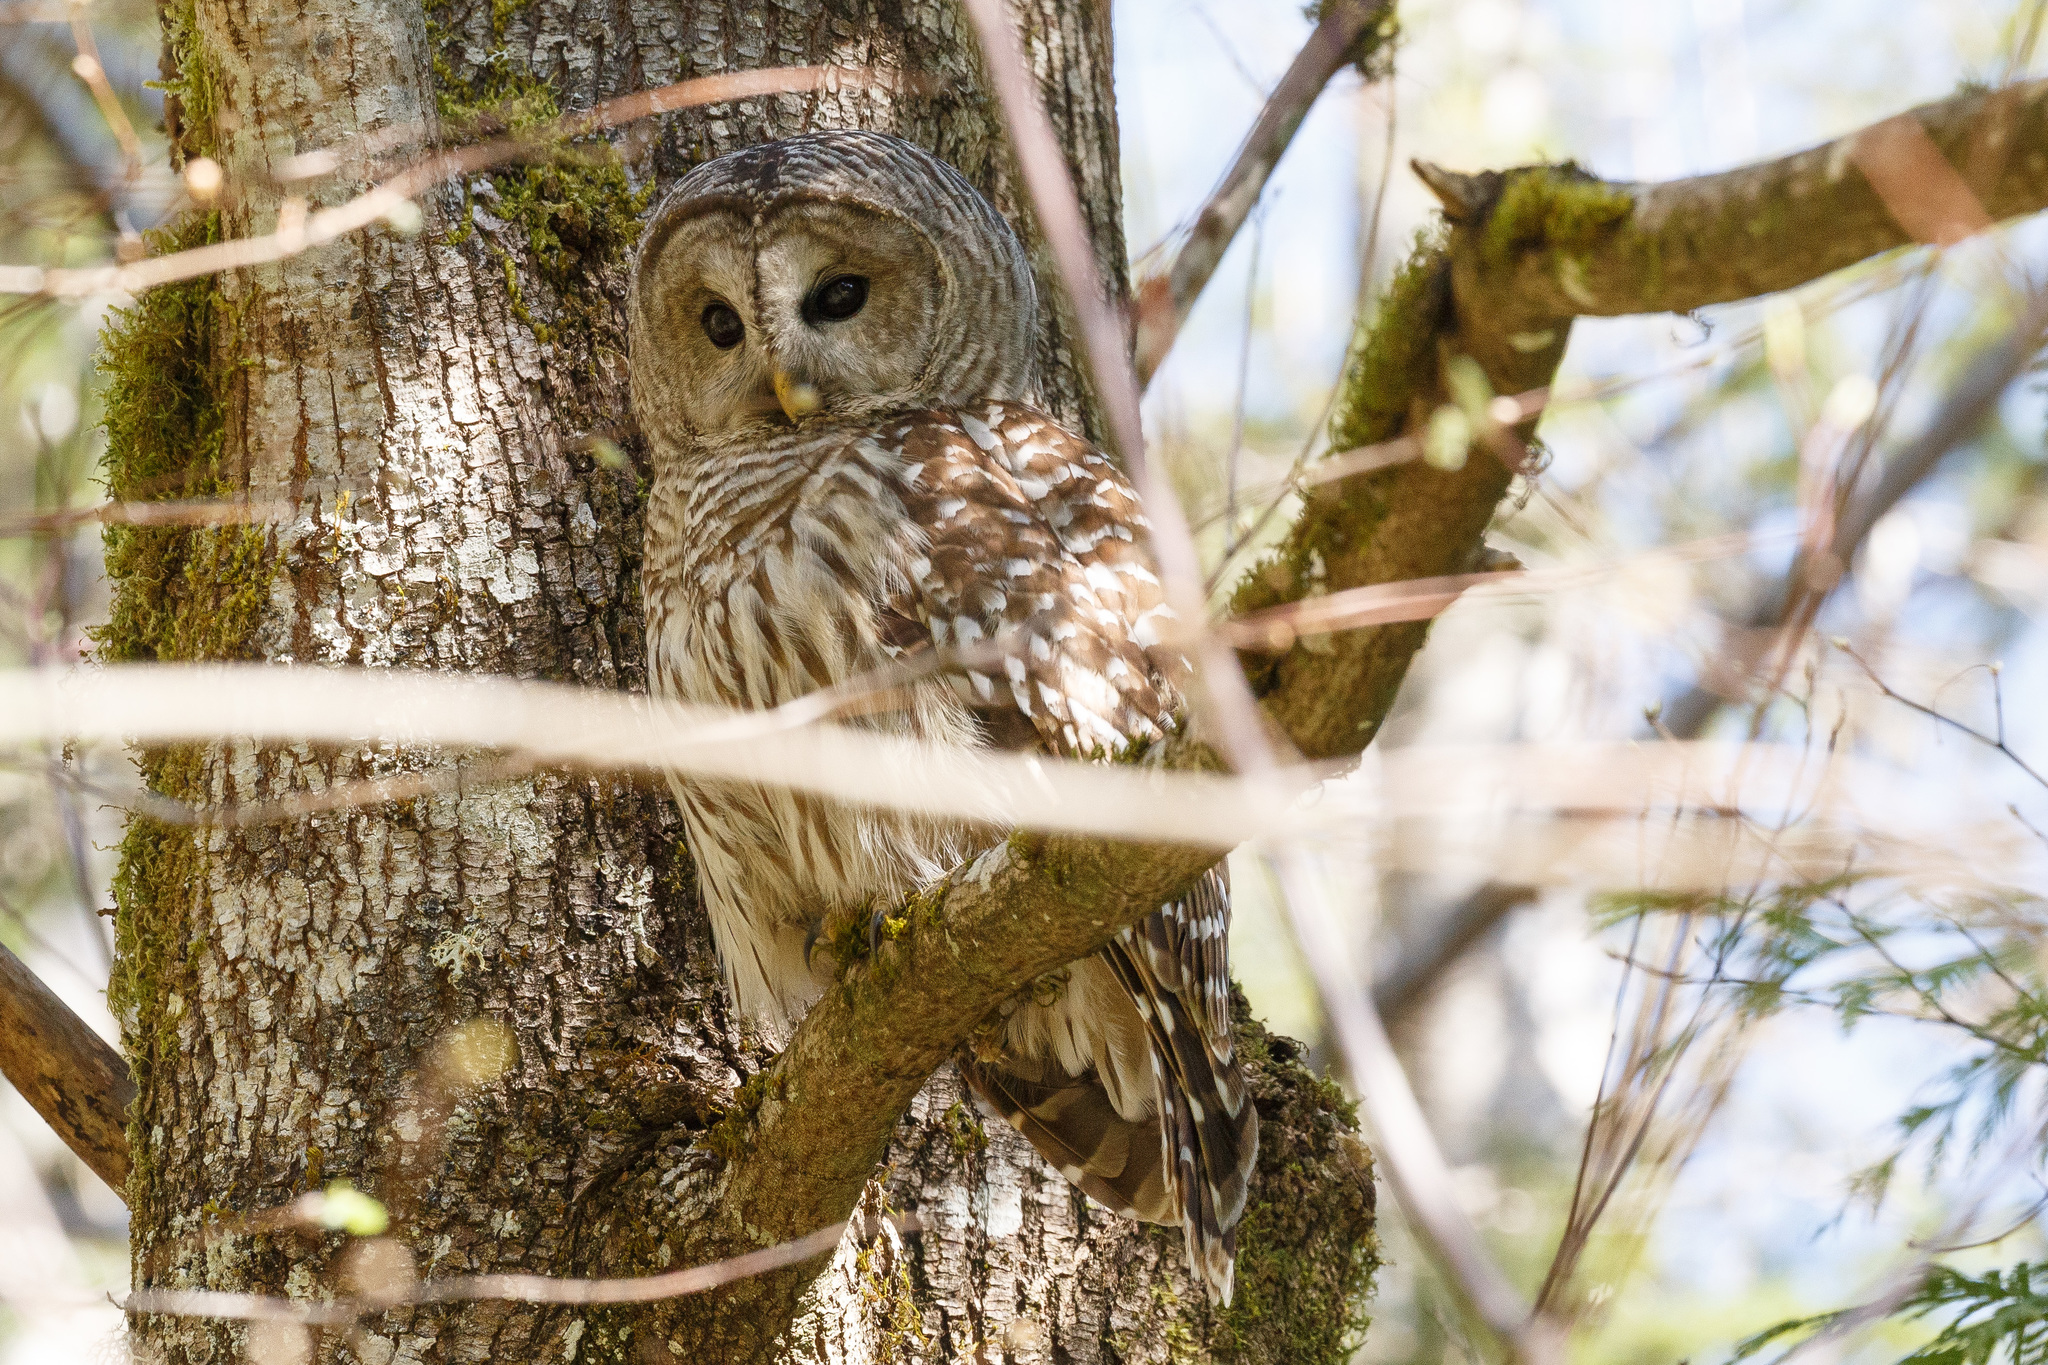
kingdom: Animalia
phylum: Chordata
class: Aves
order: Strigiformes
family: Strigidae
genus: Strix
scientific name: Strix varia
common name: Barred owl
